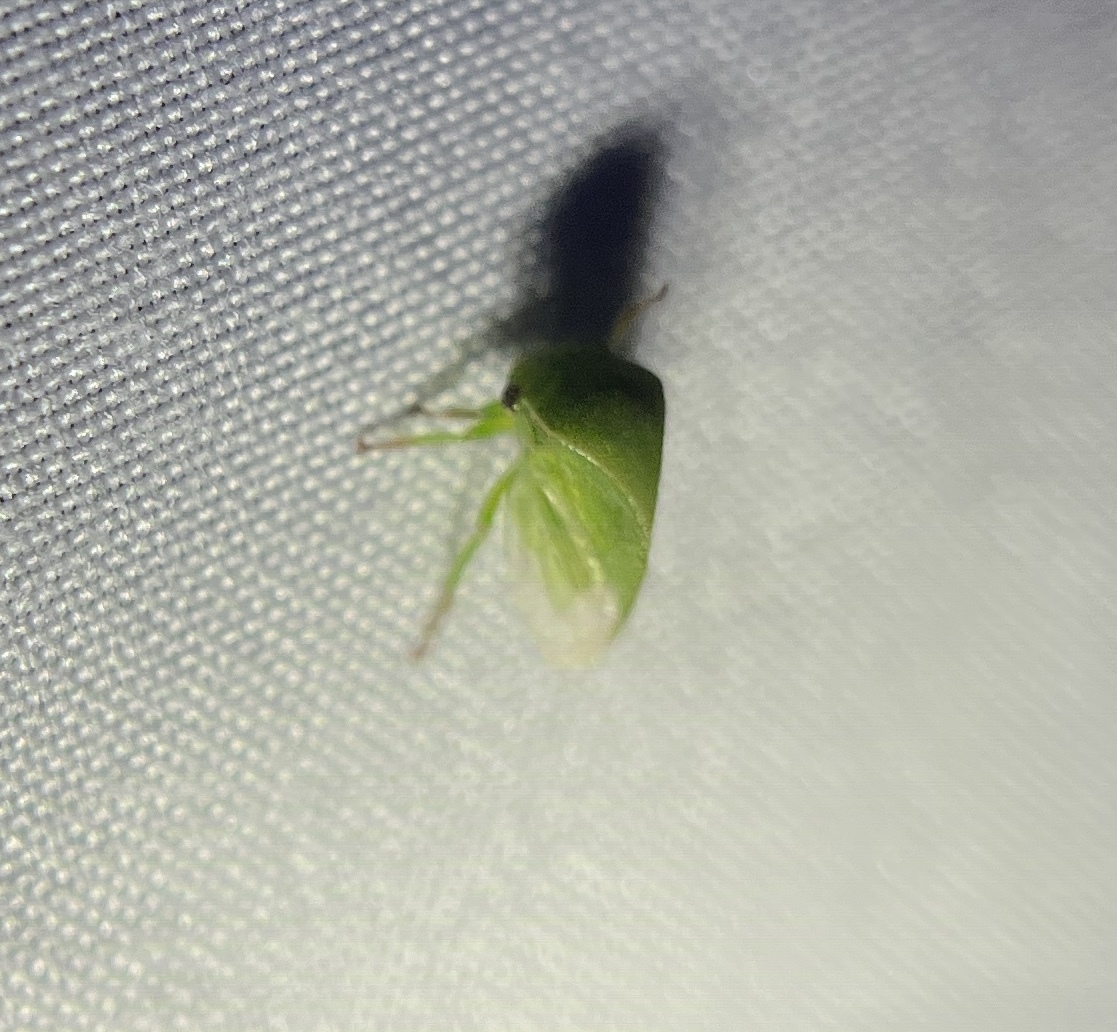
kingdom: Animalia
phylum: Arthropoda
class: Insecta
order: Hemiptera
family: Membracidae
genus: Spissistilus
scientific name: Spissistilus festina
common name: Membracid bug
